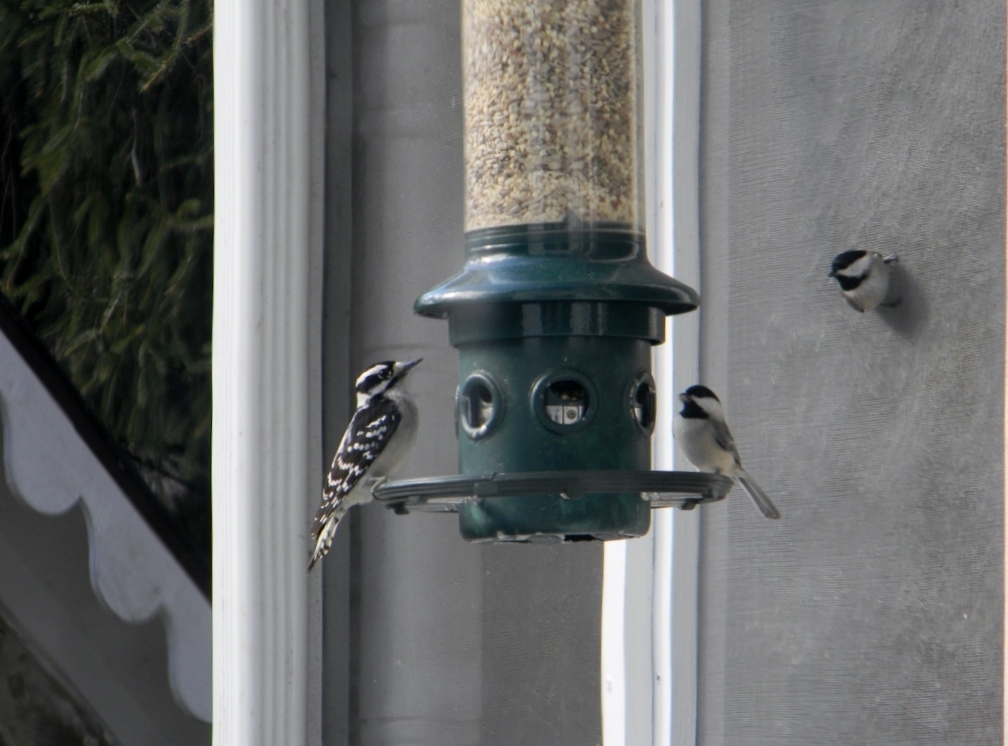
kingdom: Animalia
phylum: Chordata
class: Aves
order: Piciformes
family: Picidae
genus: Dryobates
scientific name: Dryobates pubescens
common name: Downy woodpecker
